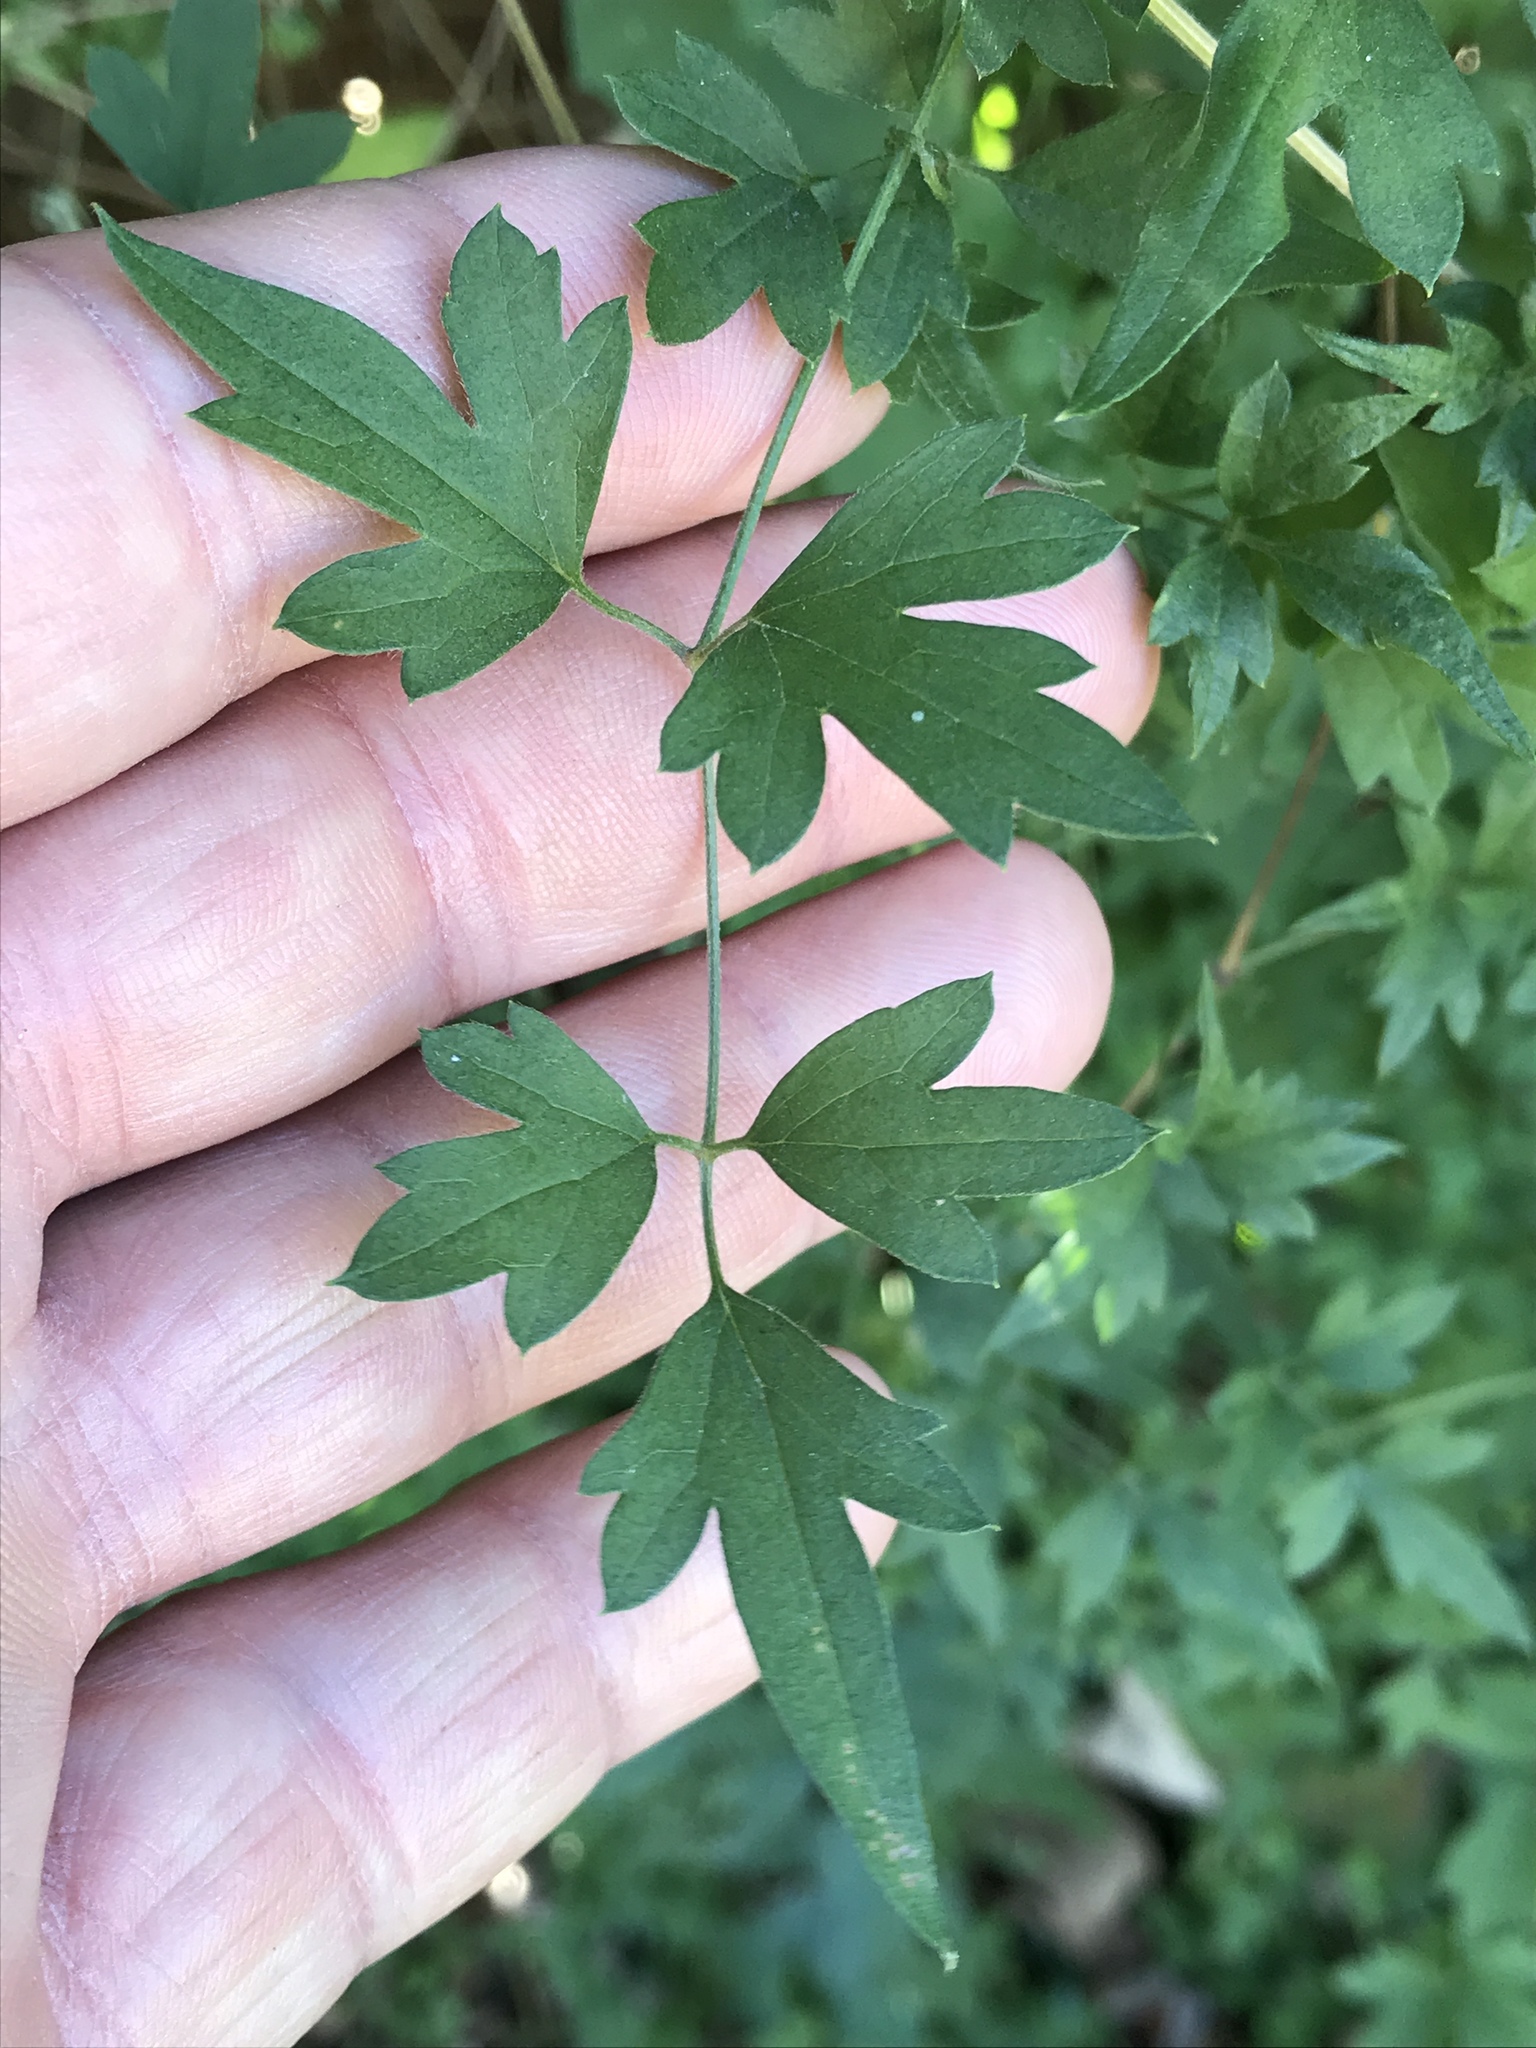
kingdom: Plantae
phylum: Tracheophyta
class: Magnoliopsida
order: Ranunculales
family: Ranunculaceae
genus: Clematis
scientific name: Clematis drummondii
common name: Texas virgin's bower
